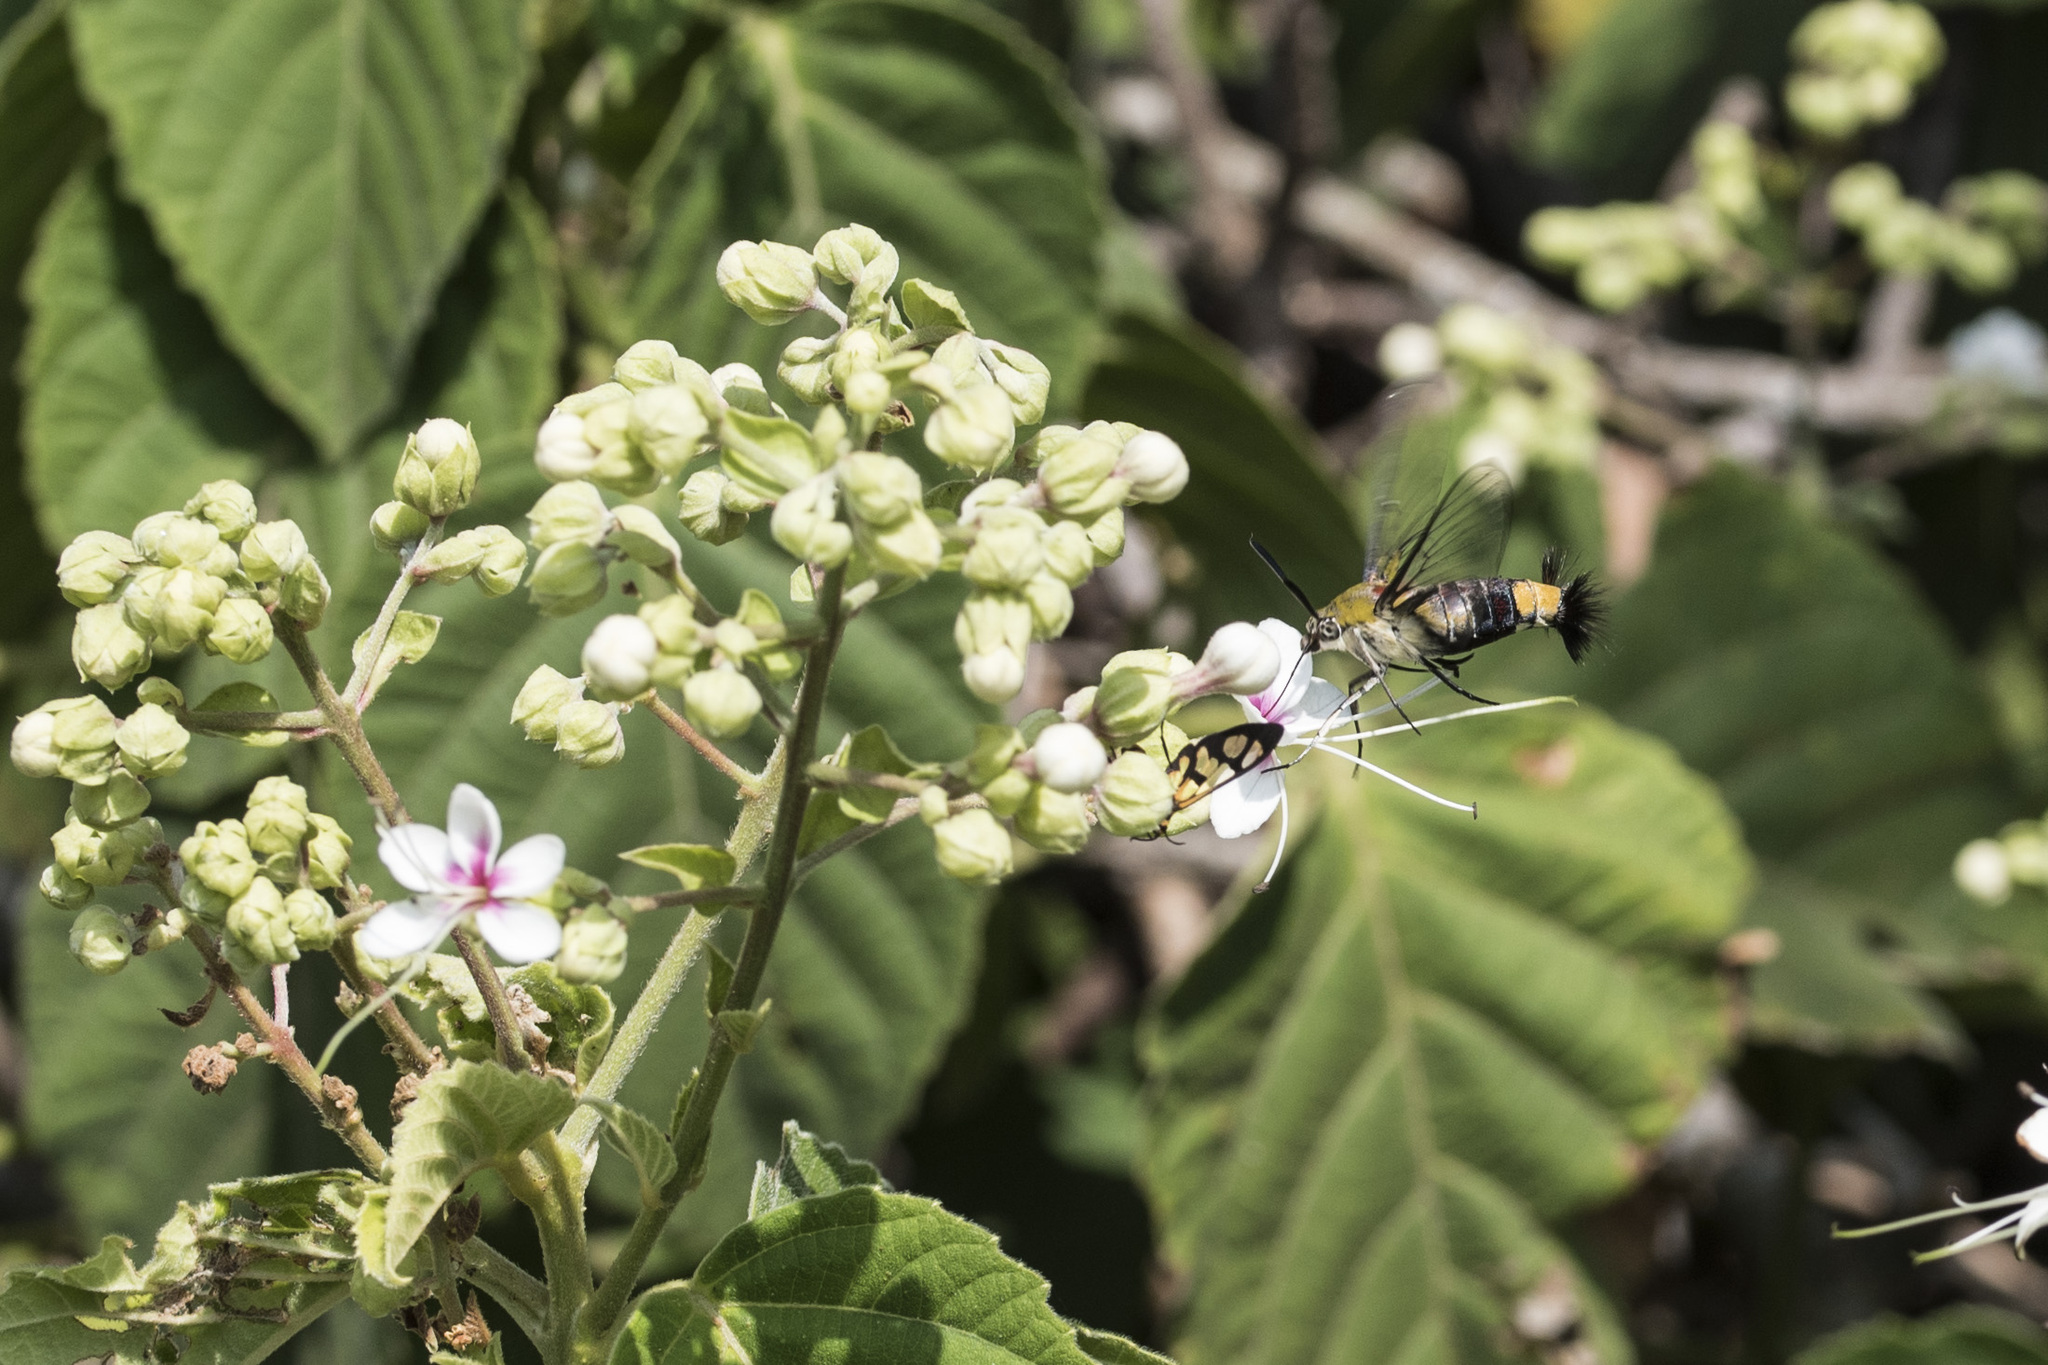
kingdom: Animalia
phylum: Arthropoda
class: Insecta
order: Lepidoptera
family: Sphingidae
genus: Cephonodes
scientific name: Cephonodes hylas
